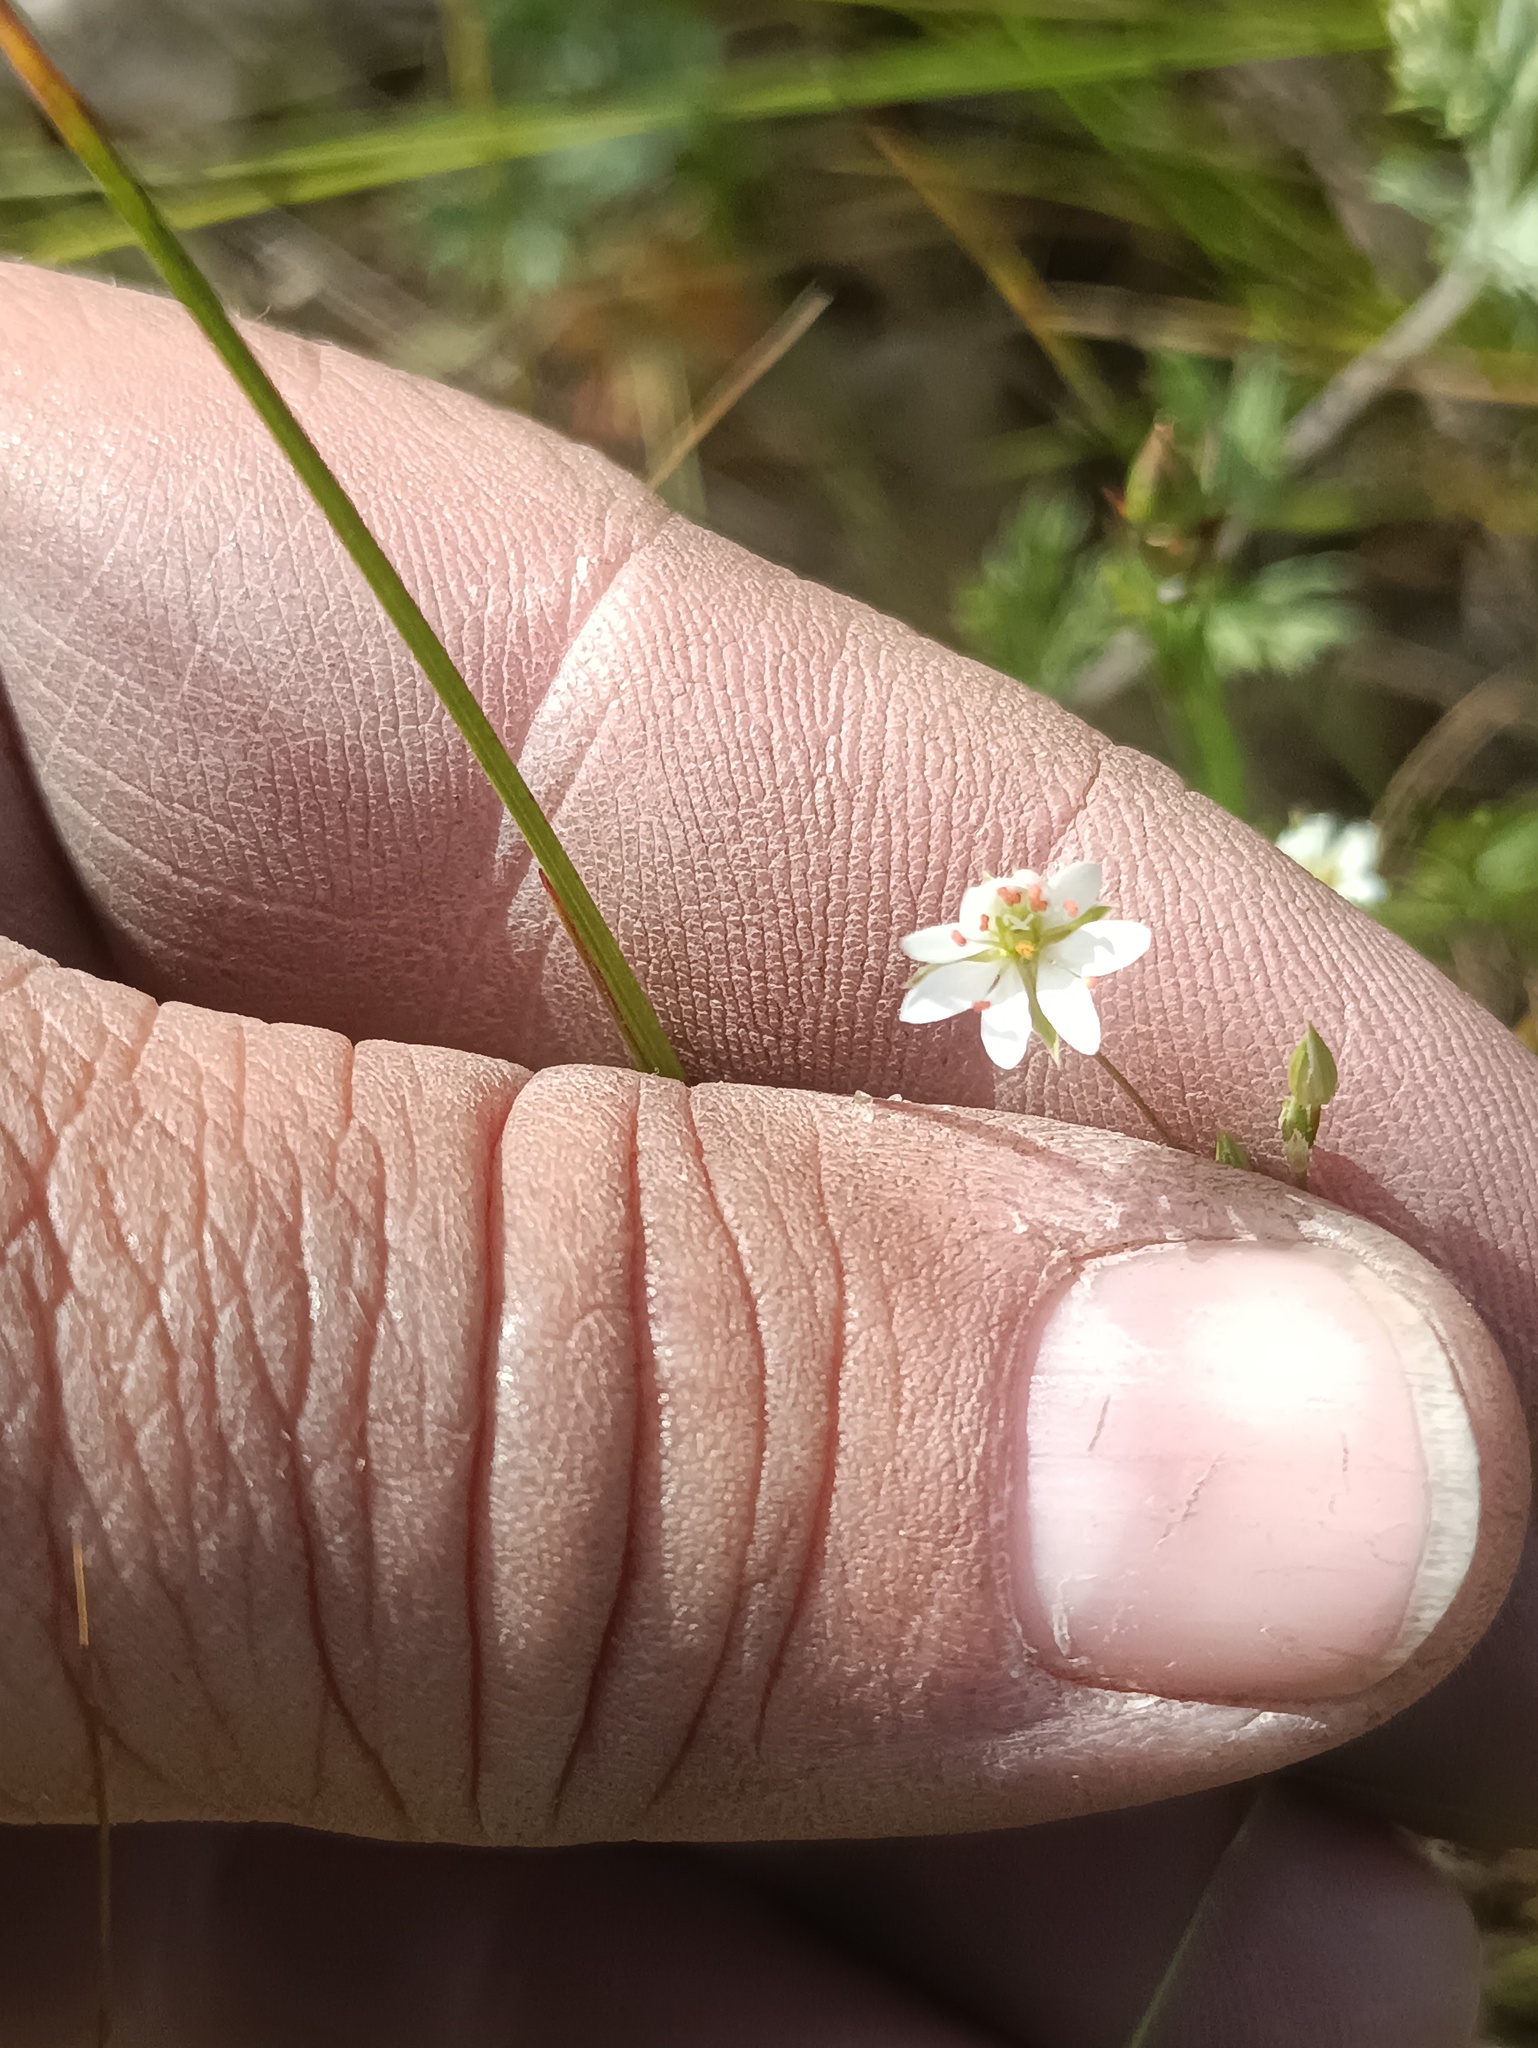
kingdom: Plantae
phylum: Tracheophyta
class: Magnoliopsida
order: Caryophyllales
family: Caryophyllaceae
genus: Stellaria
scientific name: Stellaria graminea
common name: Grass-like starwort
